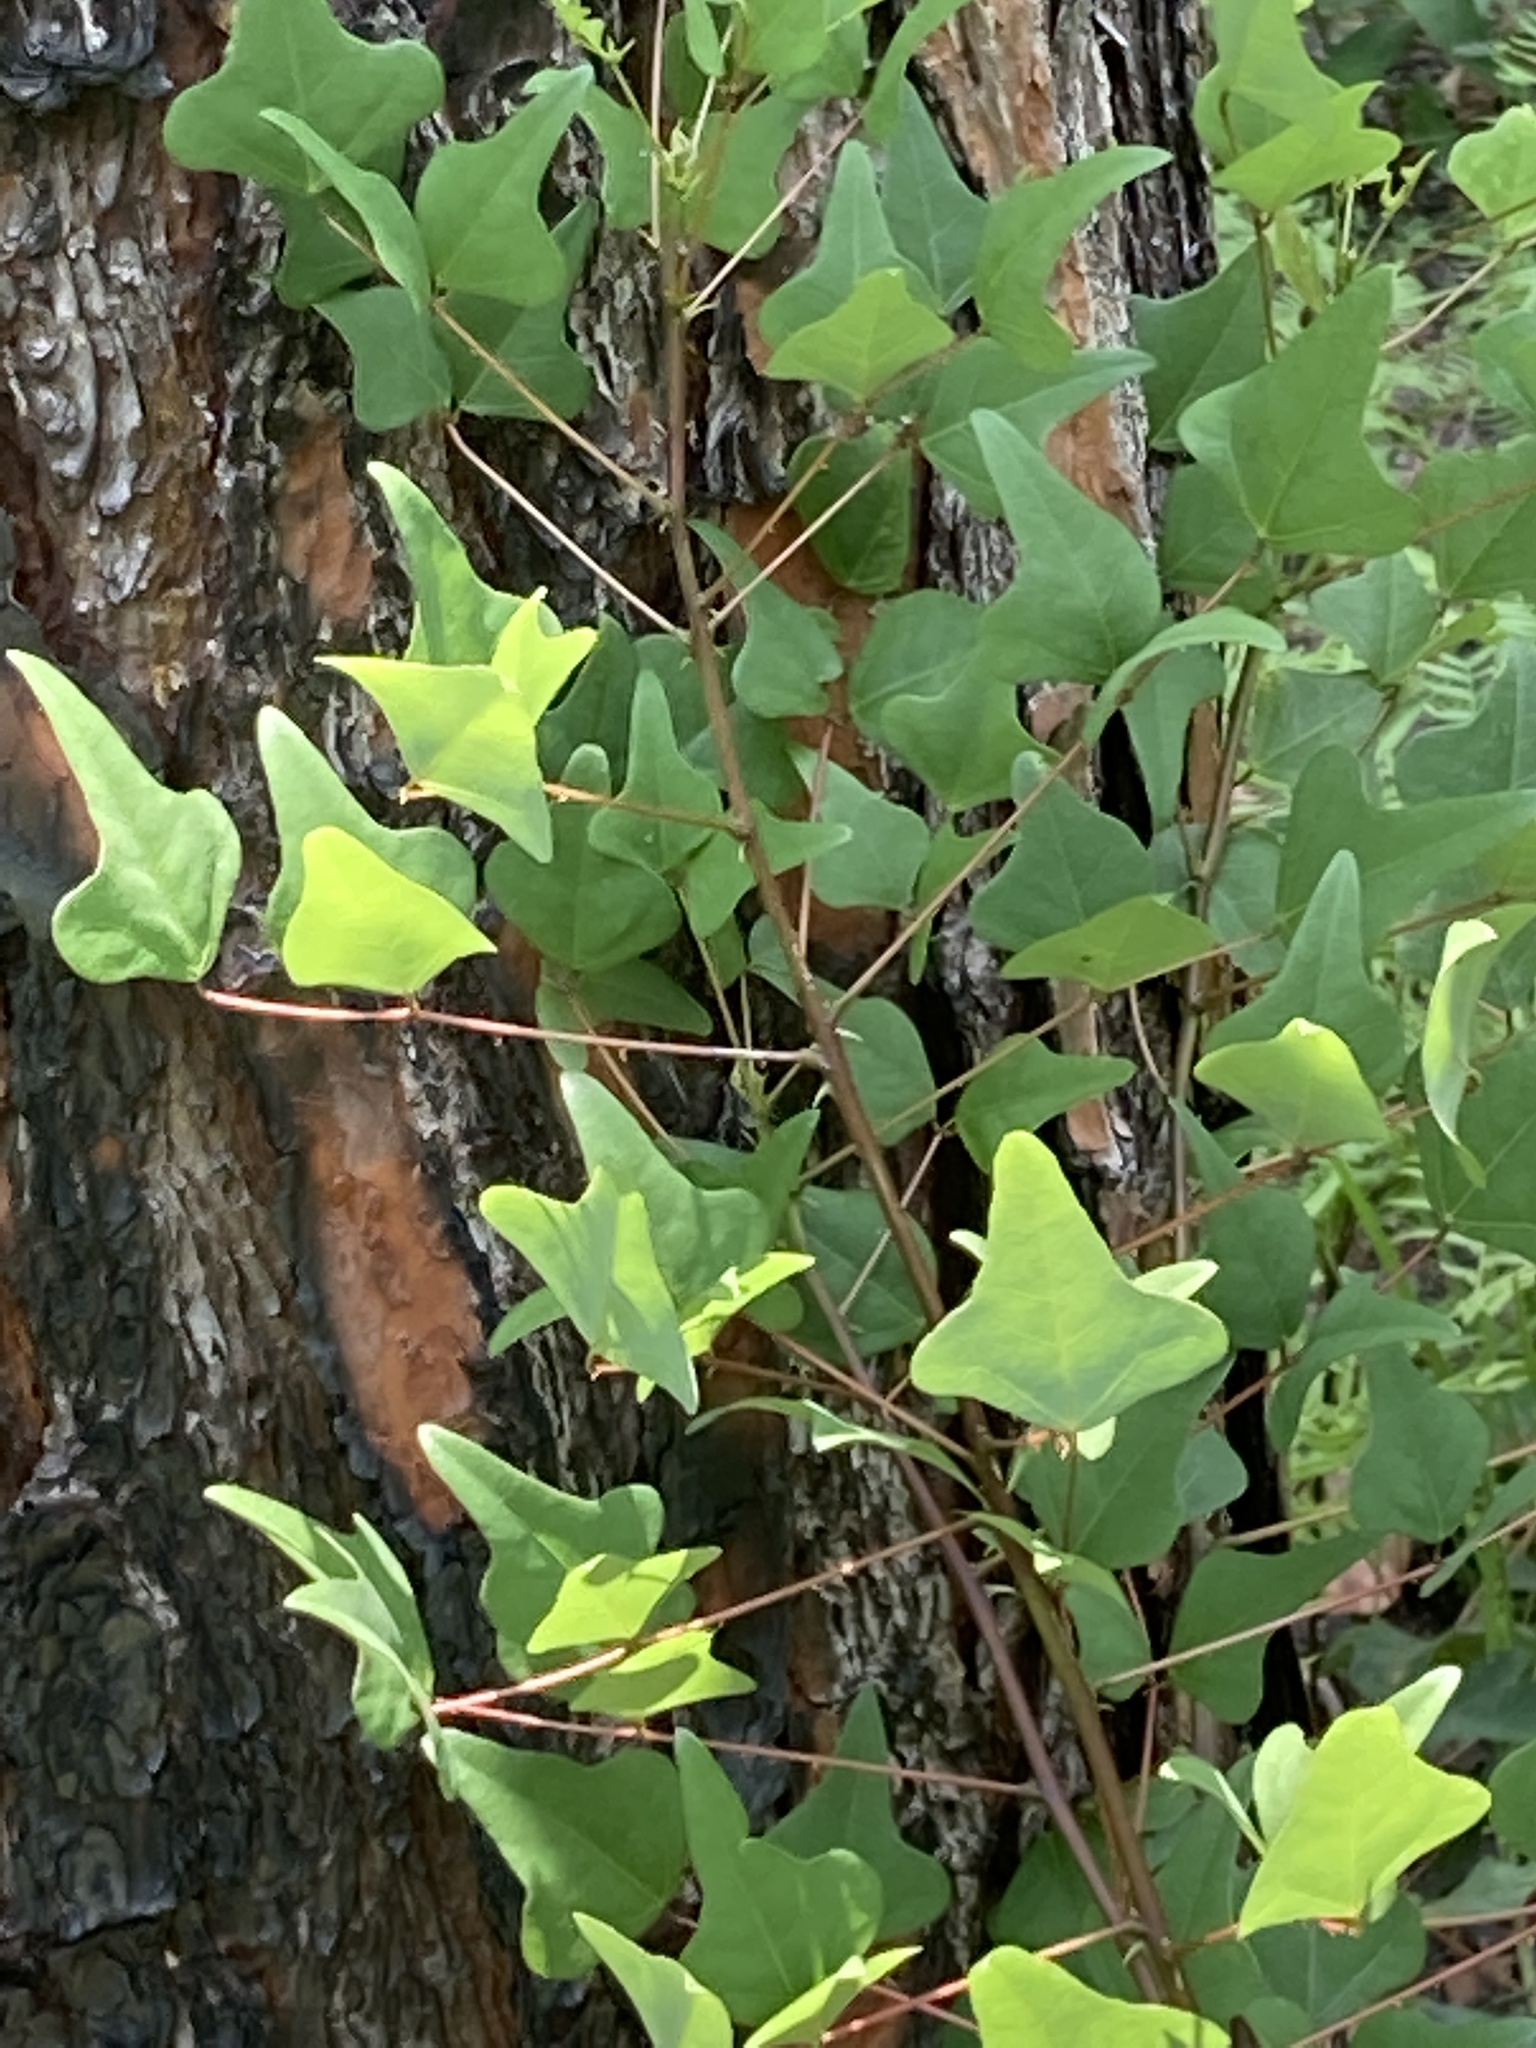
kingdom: Plantae
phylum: Tracheophyta
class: Magnoliopsida
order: Fabales
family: Fabaceae
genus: Erythrina
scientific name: Erythrina herbacea
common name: Coral-bean
